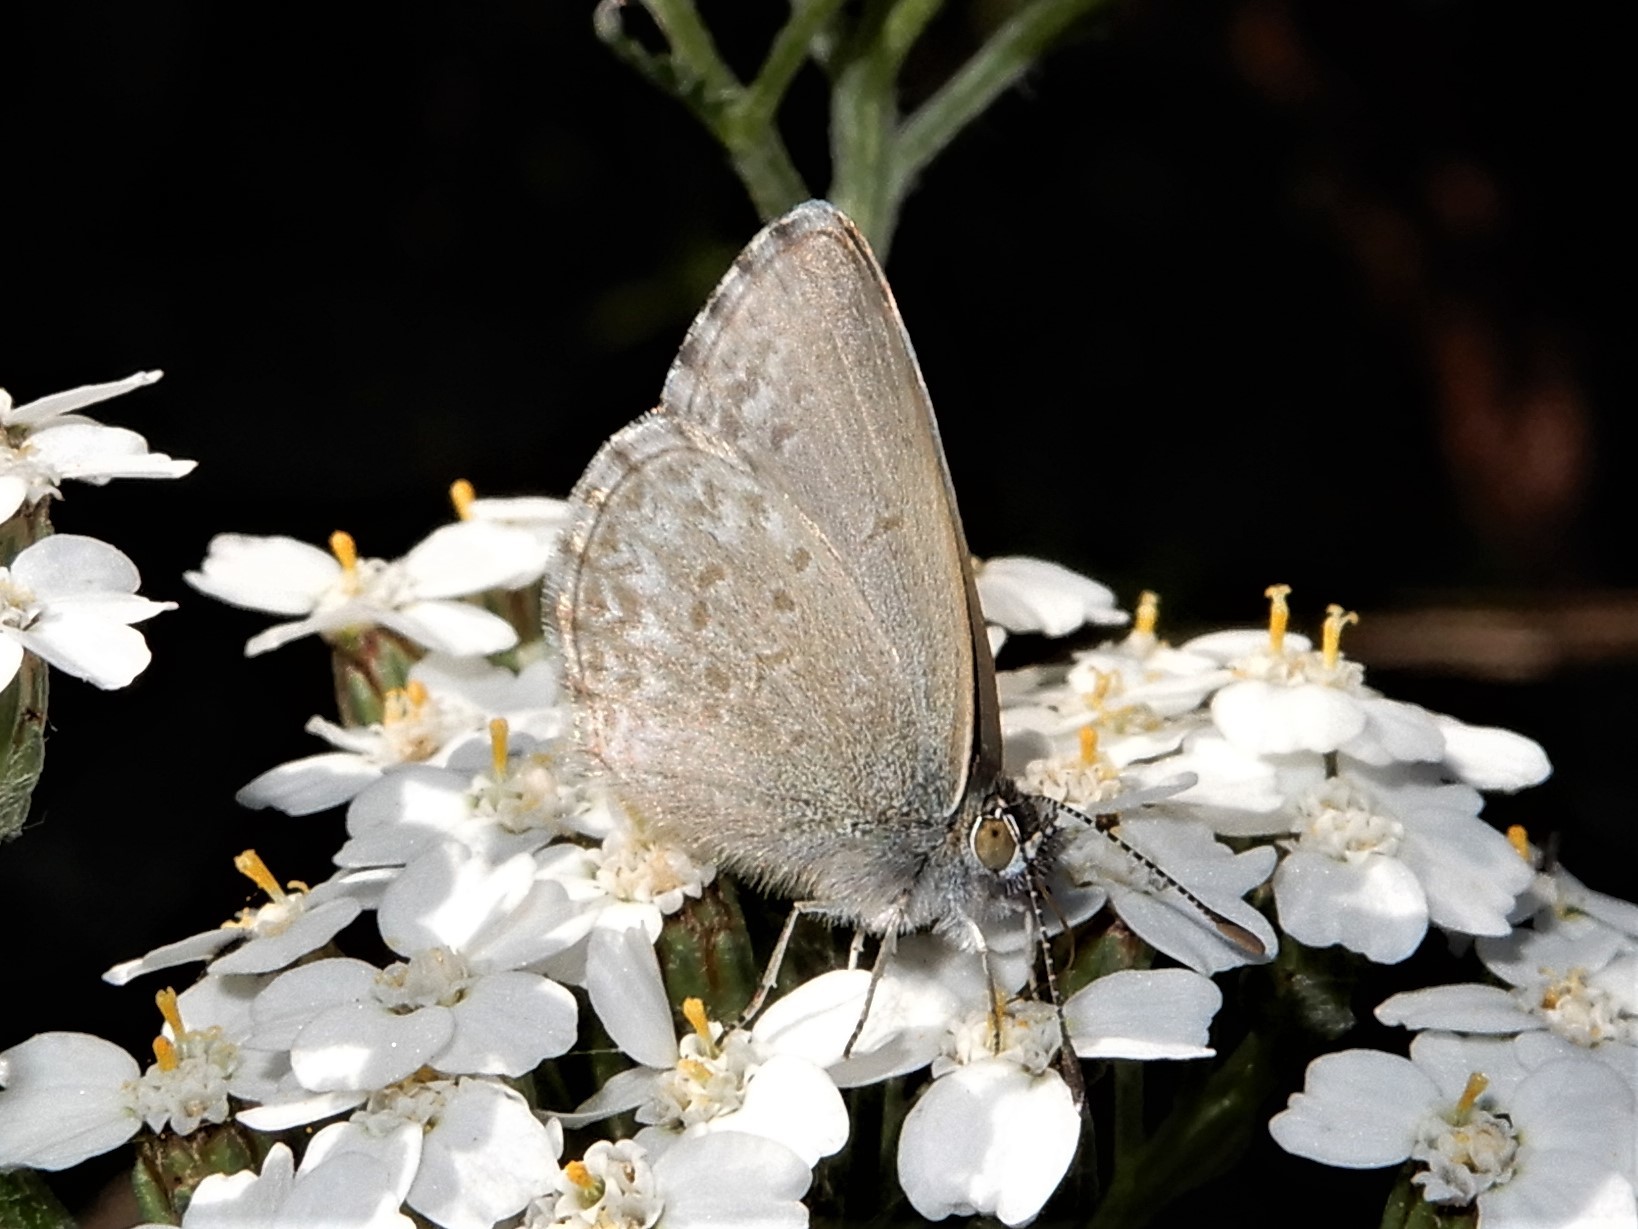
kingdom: Animalia
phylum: Arthropoda
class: Insecta
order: Lepidoptera
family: Lycaenidae
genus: Zizina
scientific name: Zizina labradus
